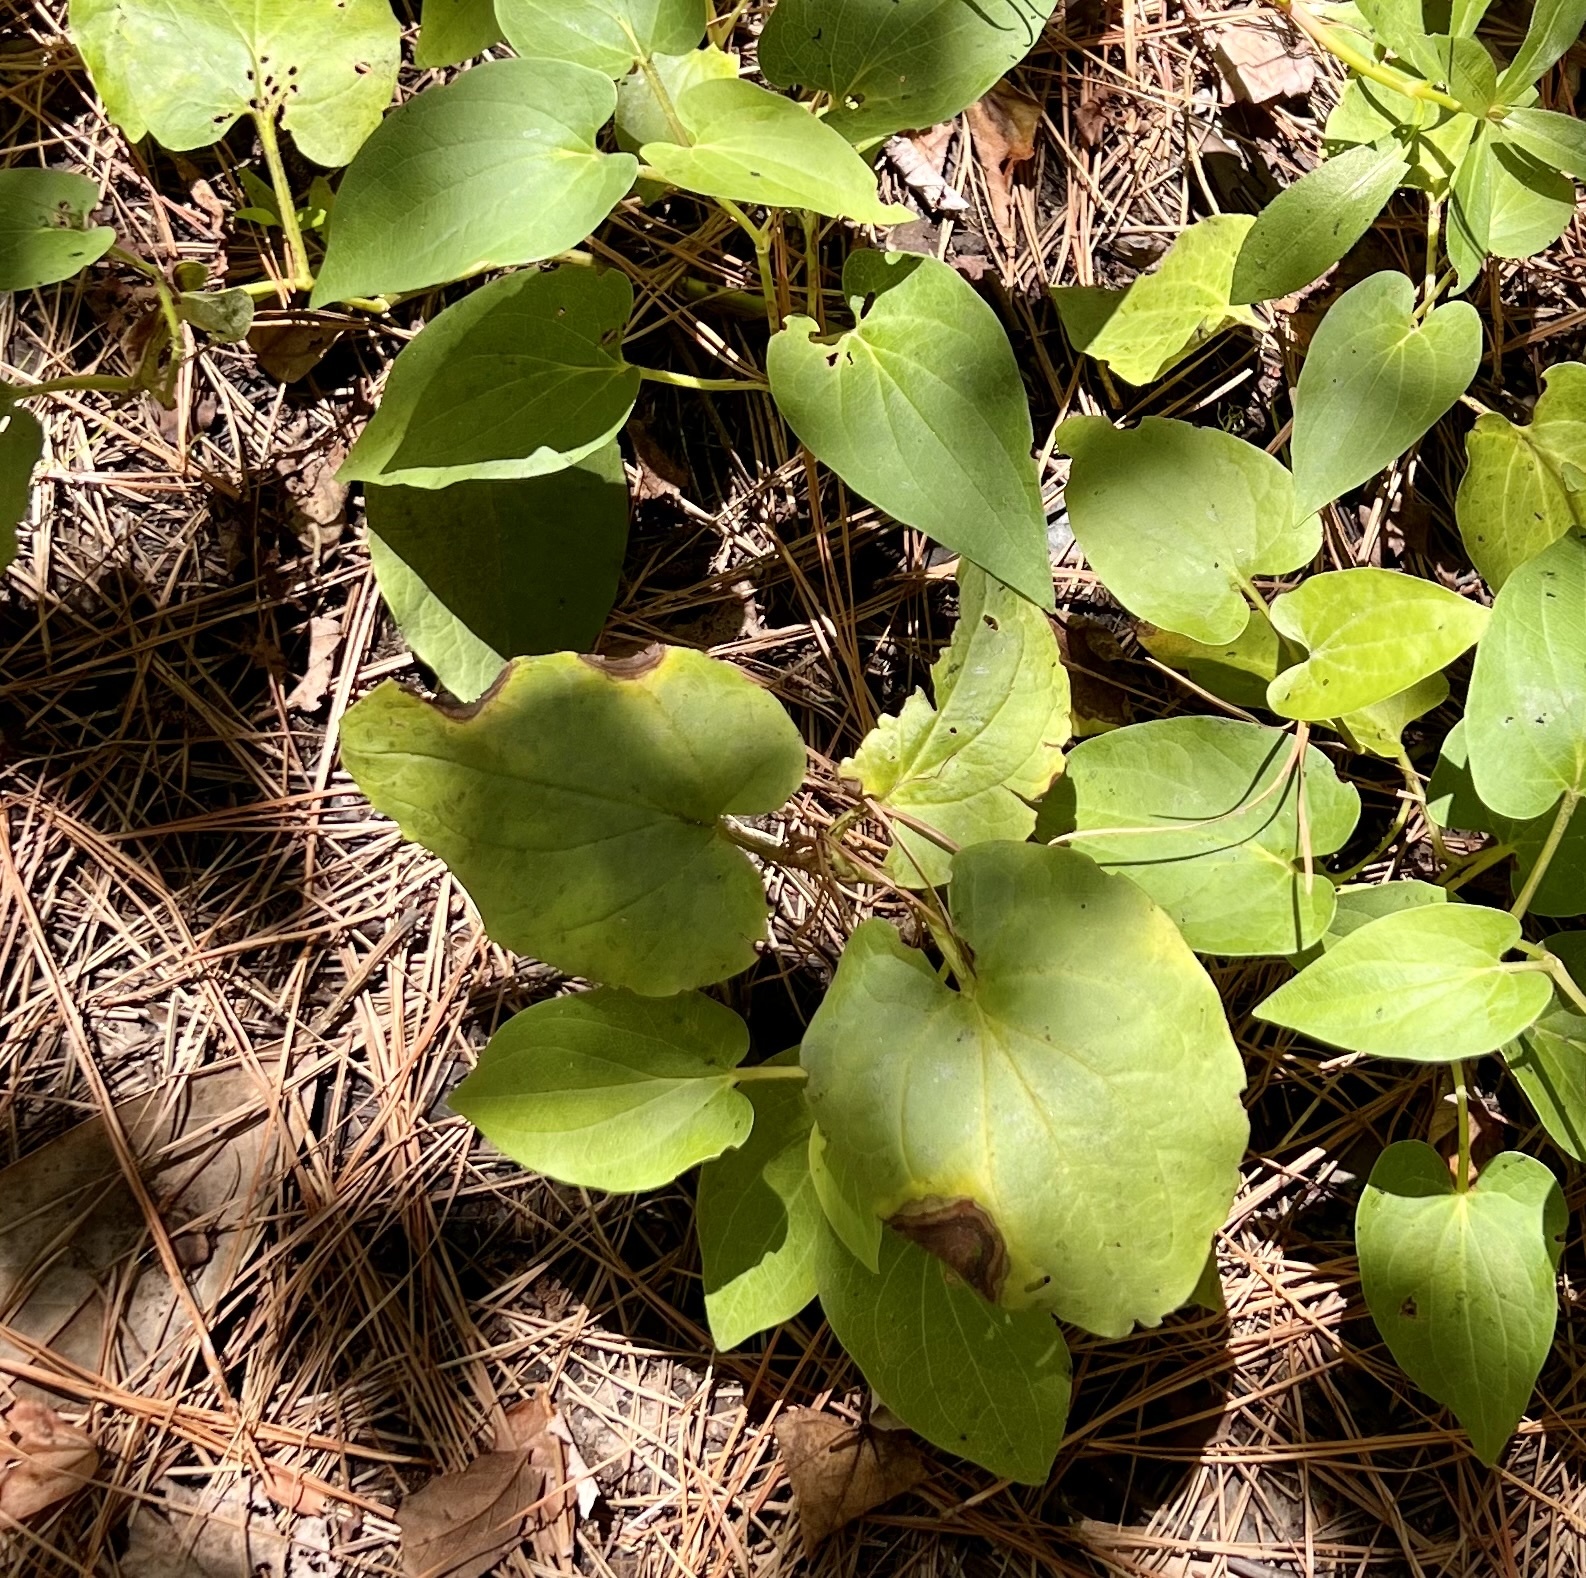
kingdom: Plantae
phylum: Tracheophyta
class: Magnoliopsida
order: Piperales
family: Saururaceae
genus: Saururus
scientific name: Saururus cernuus
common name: Lizard's-tail
